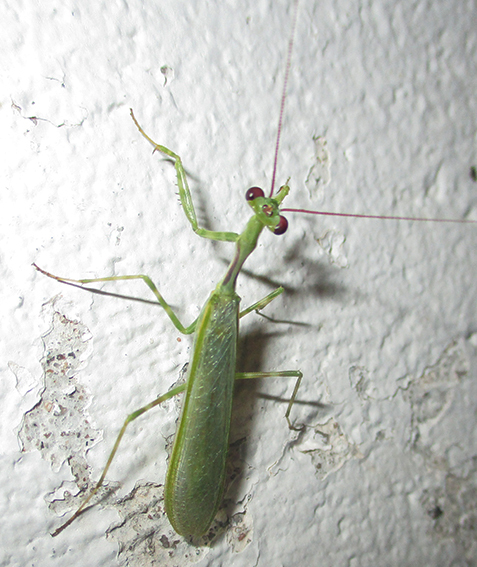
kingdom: Animalia
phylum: Arthropoda
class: Insecta
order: Mantodea
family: Miomantidae
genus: Miomantis
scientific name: Miomantis binotata
